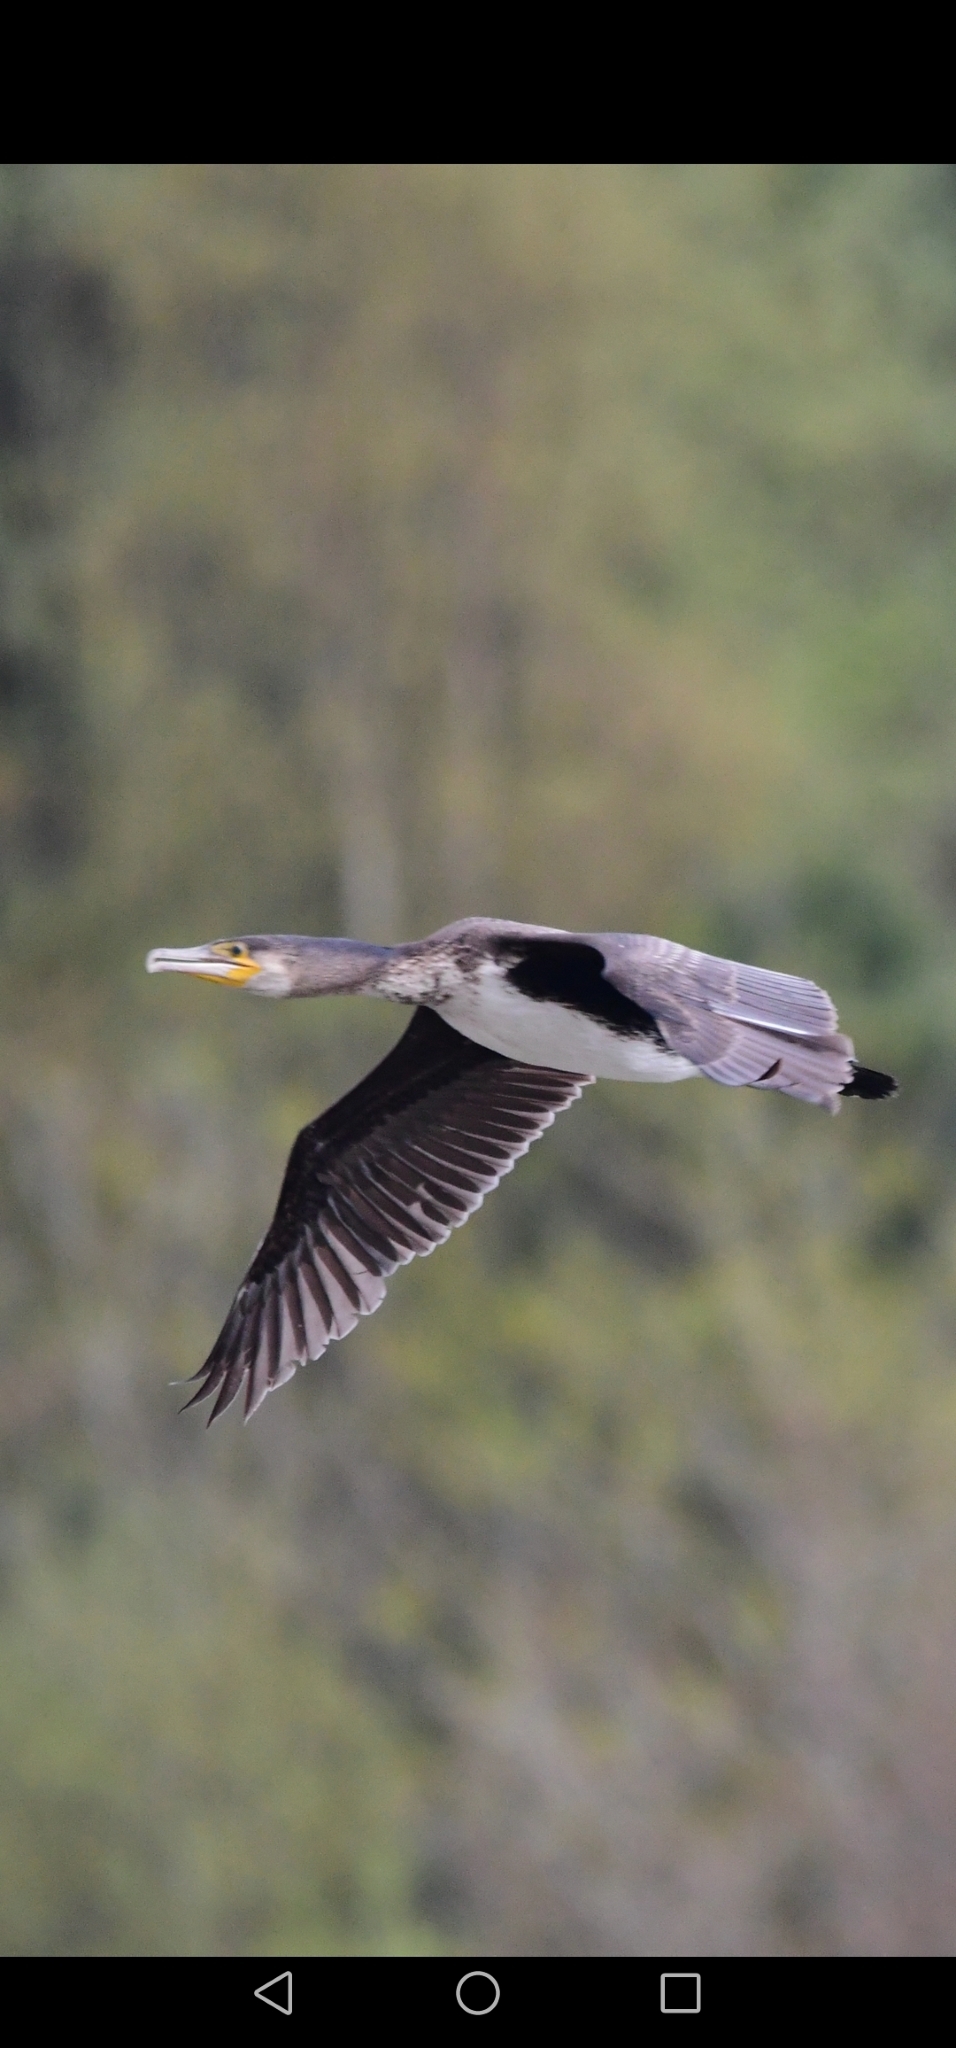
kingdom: Animalia
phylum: Chordata
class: Aves
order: Suliformes
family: Phalacrocoracidae
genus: Phalacrocorax
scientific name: Phalacrocorax carbo
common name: Great cormorant
